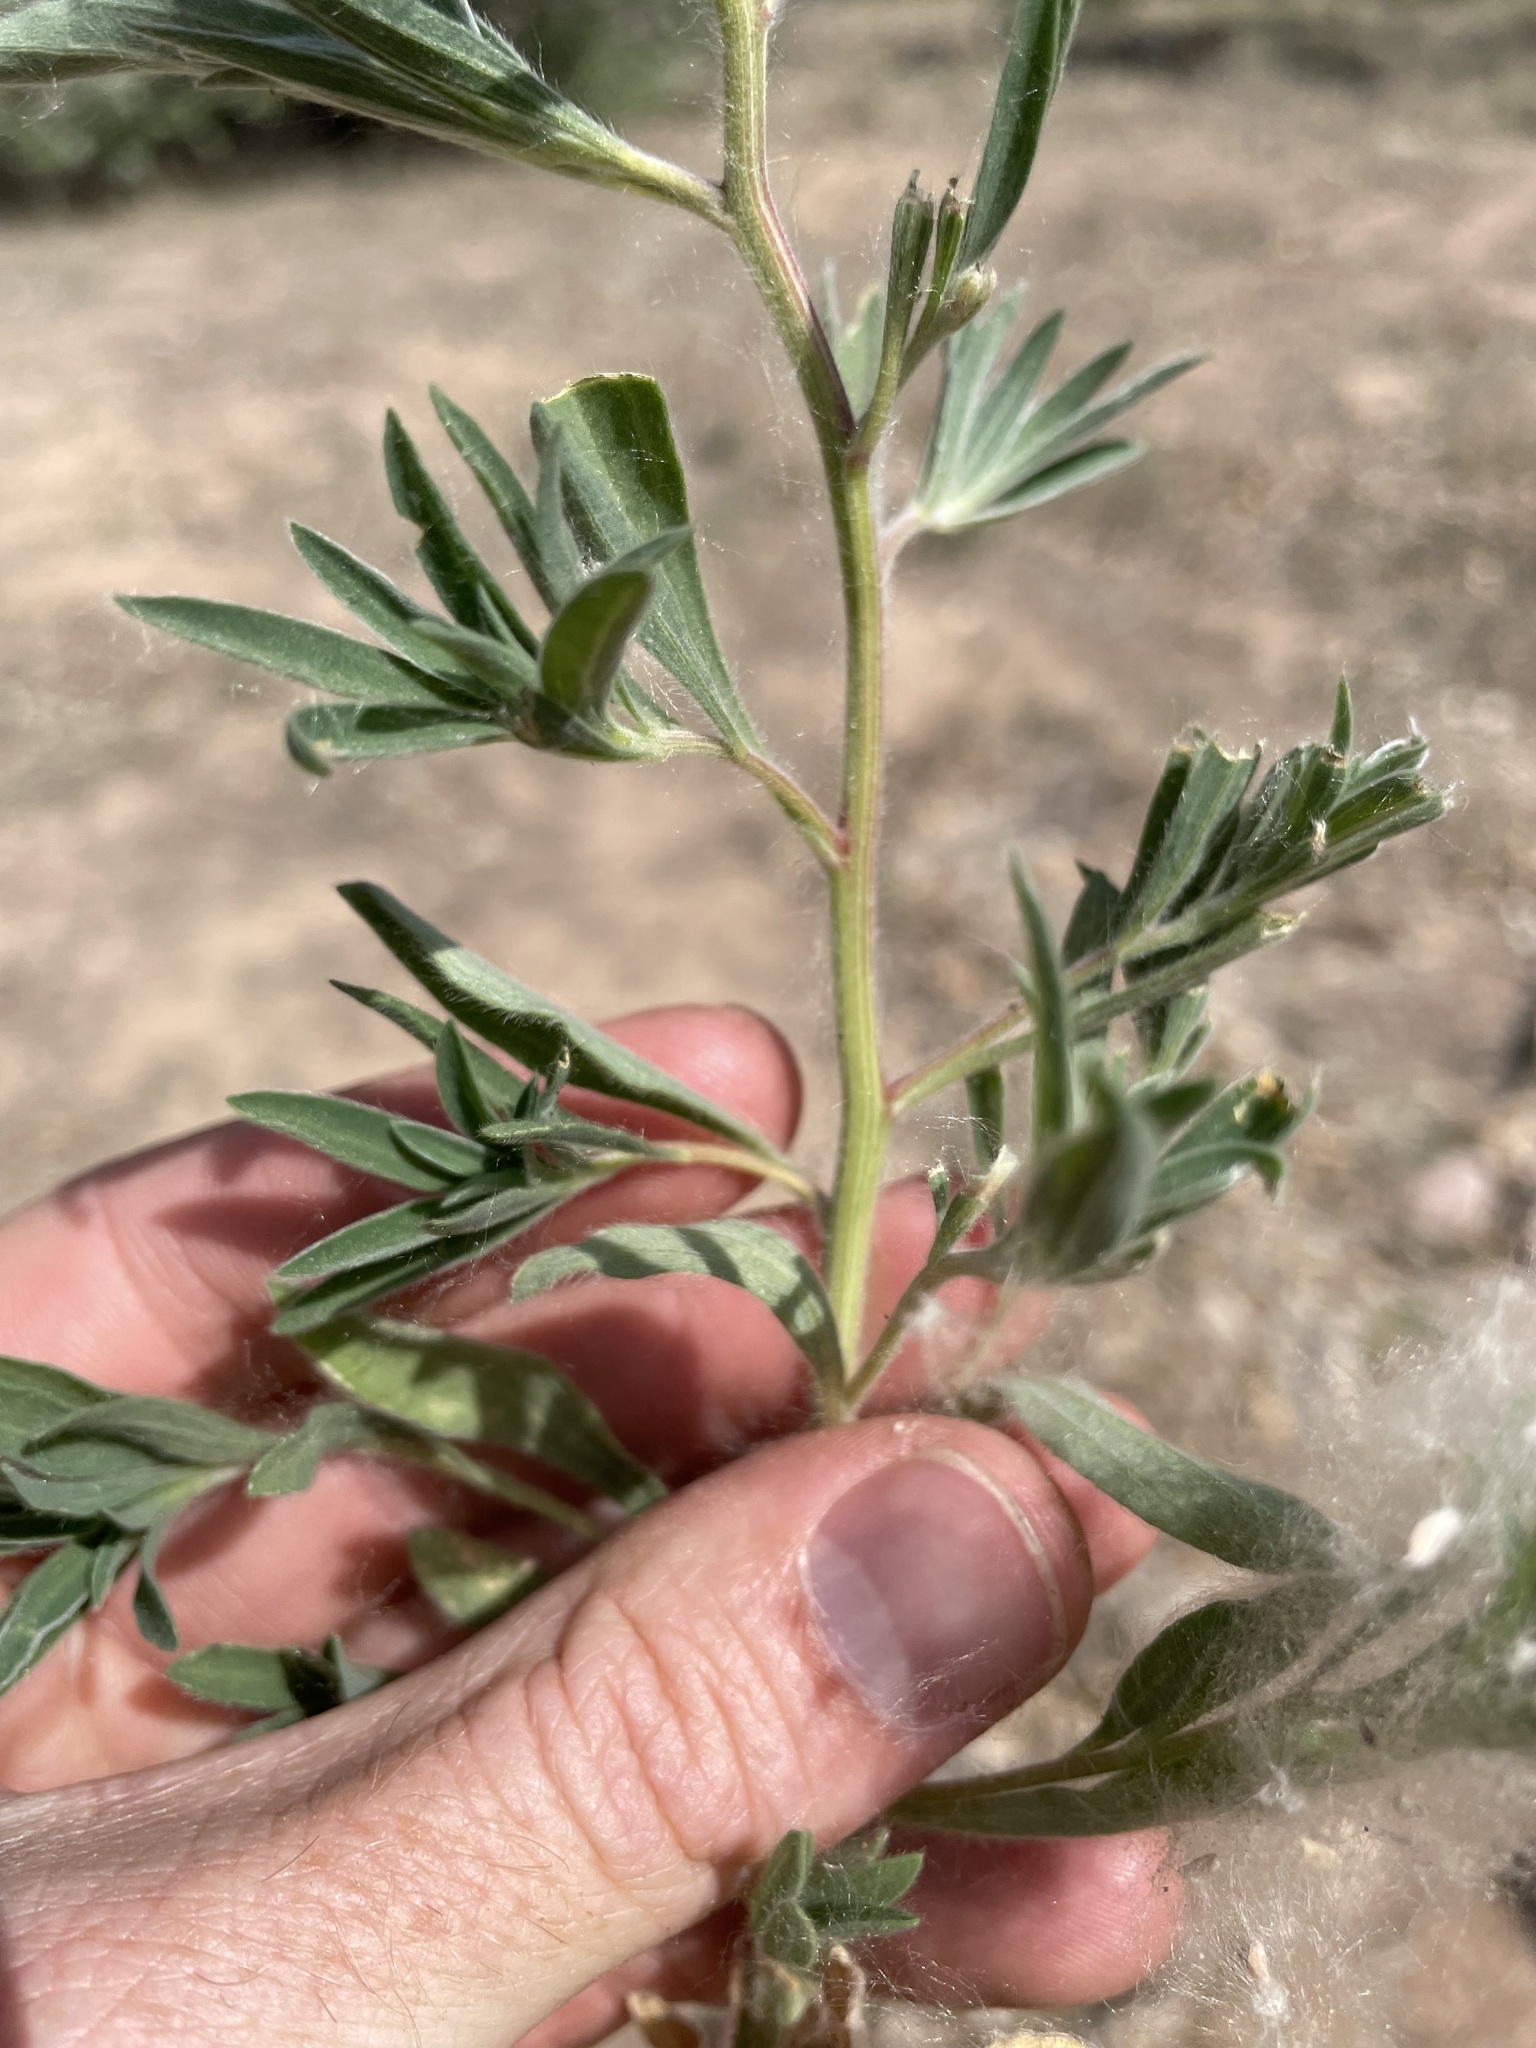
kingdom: Plantae
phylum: Tracheophyta
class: Magnoliopsida
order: Caryophyllales
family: Amaranthaceae
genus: Bassia
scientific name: Bassia scoparia
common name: Belvedere
